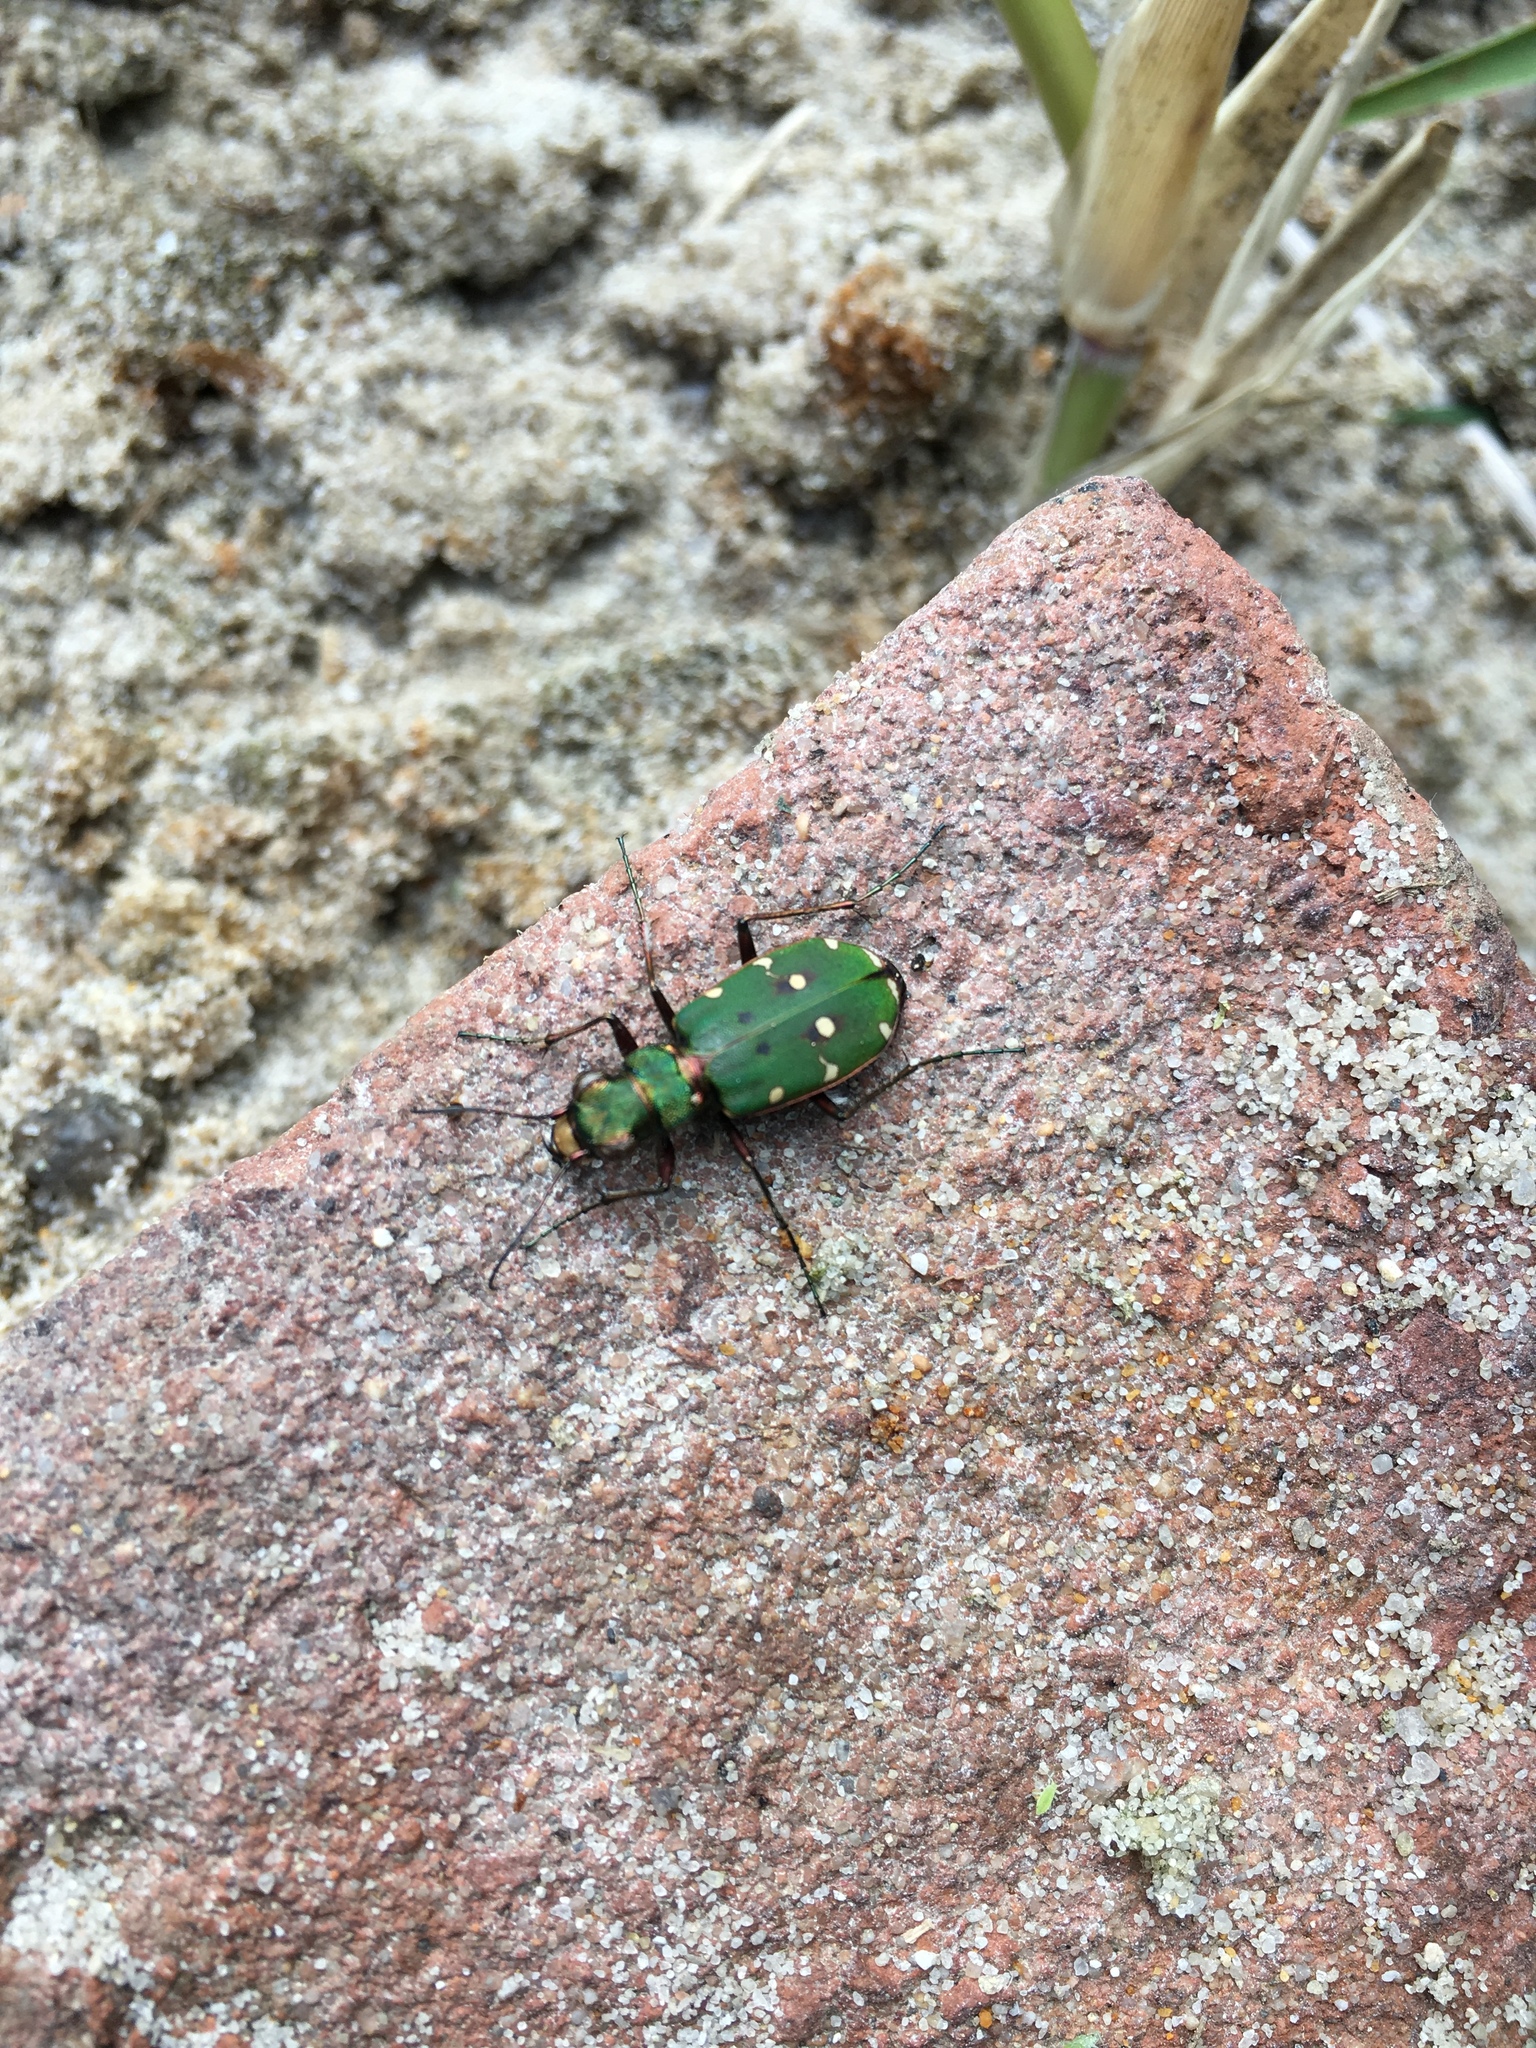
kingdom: Animalia
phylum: Arthropoda
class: Insecta
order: Coleoptera
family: Carabidae
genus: Cicindela
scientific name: Cicindela campestris
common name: Common tiger beetle
